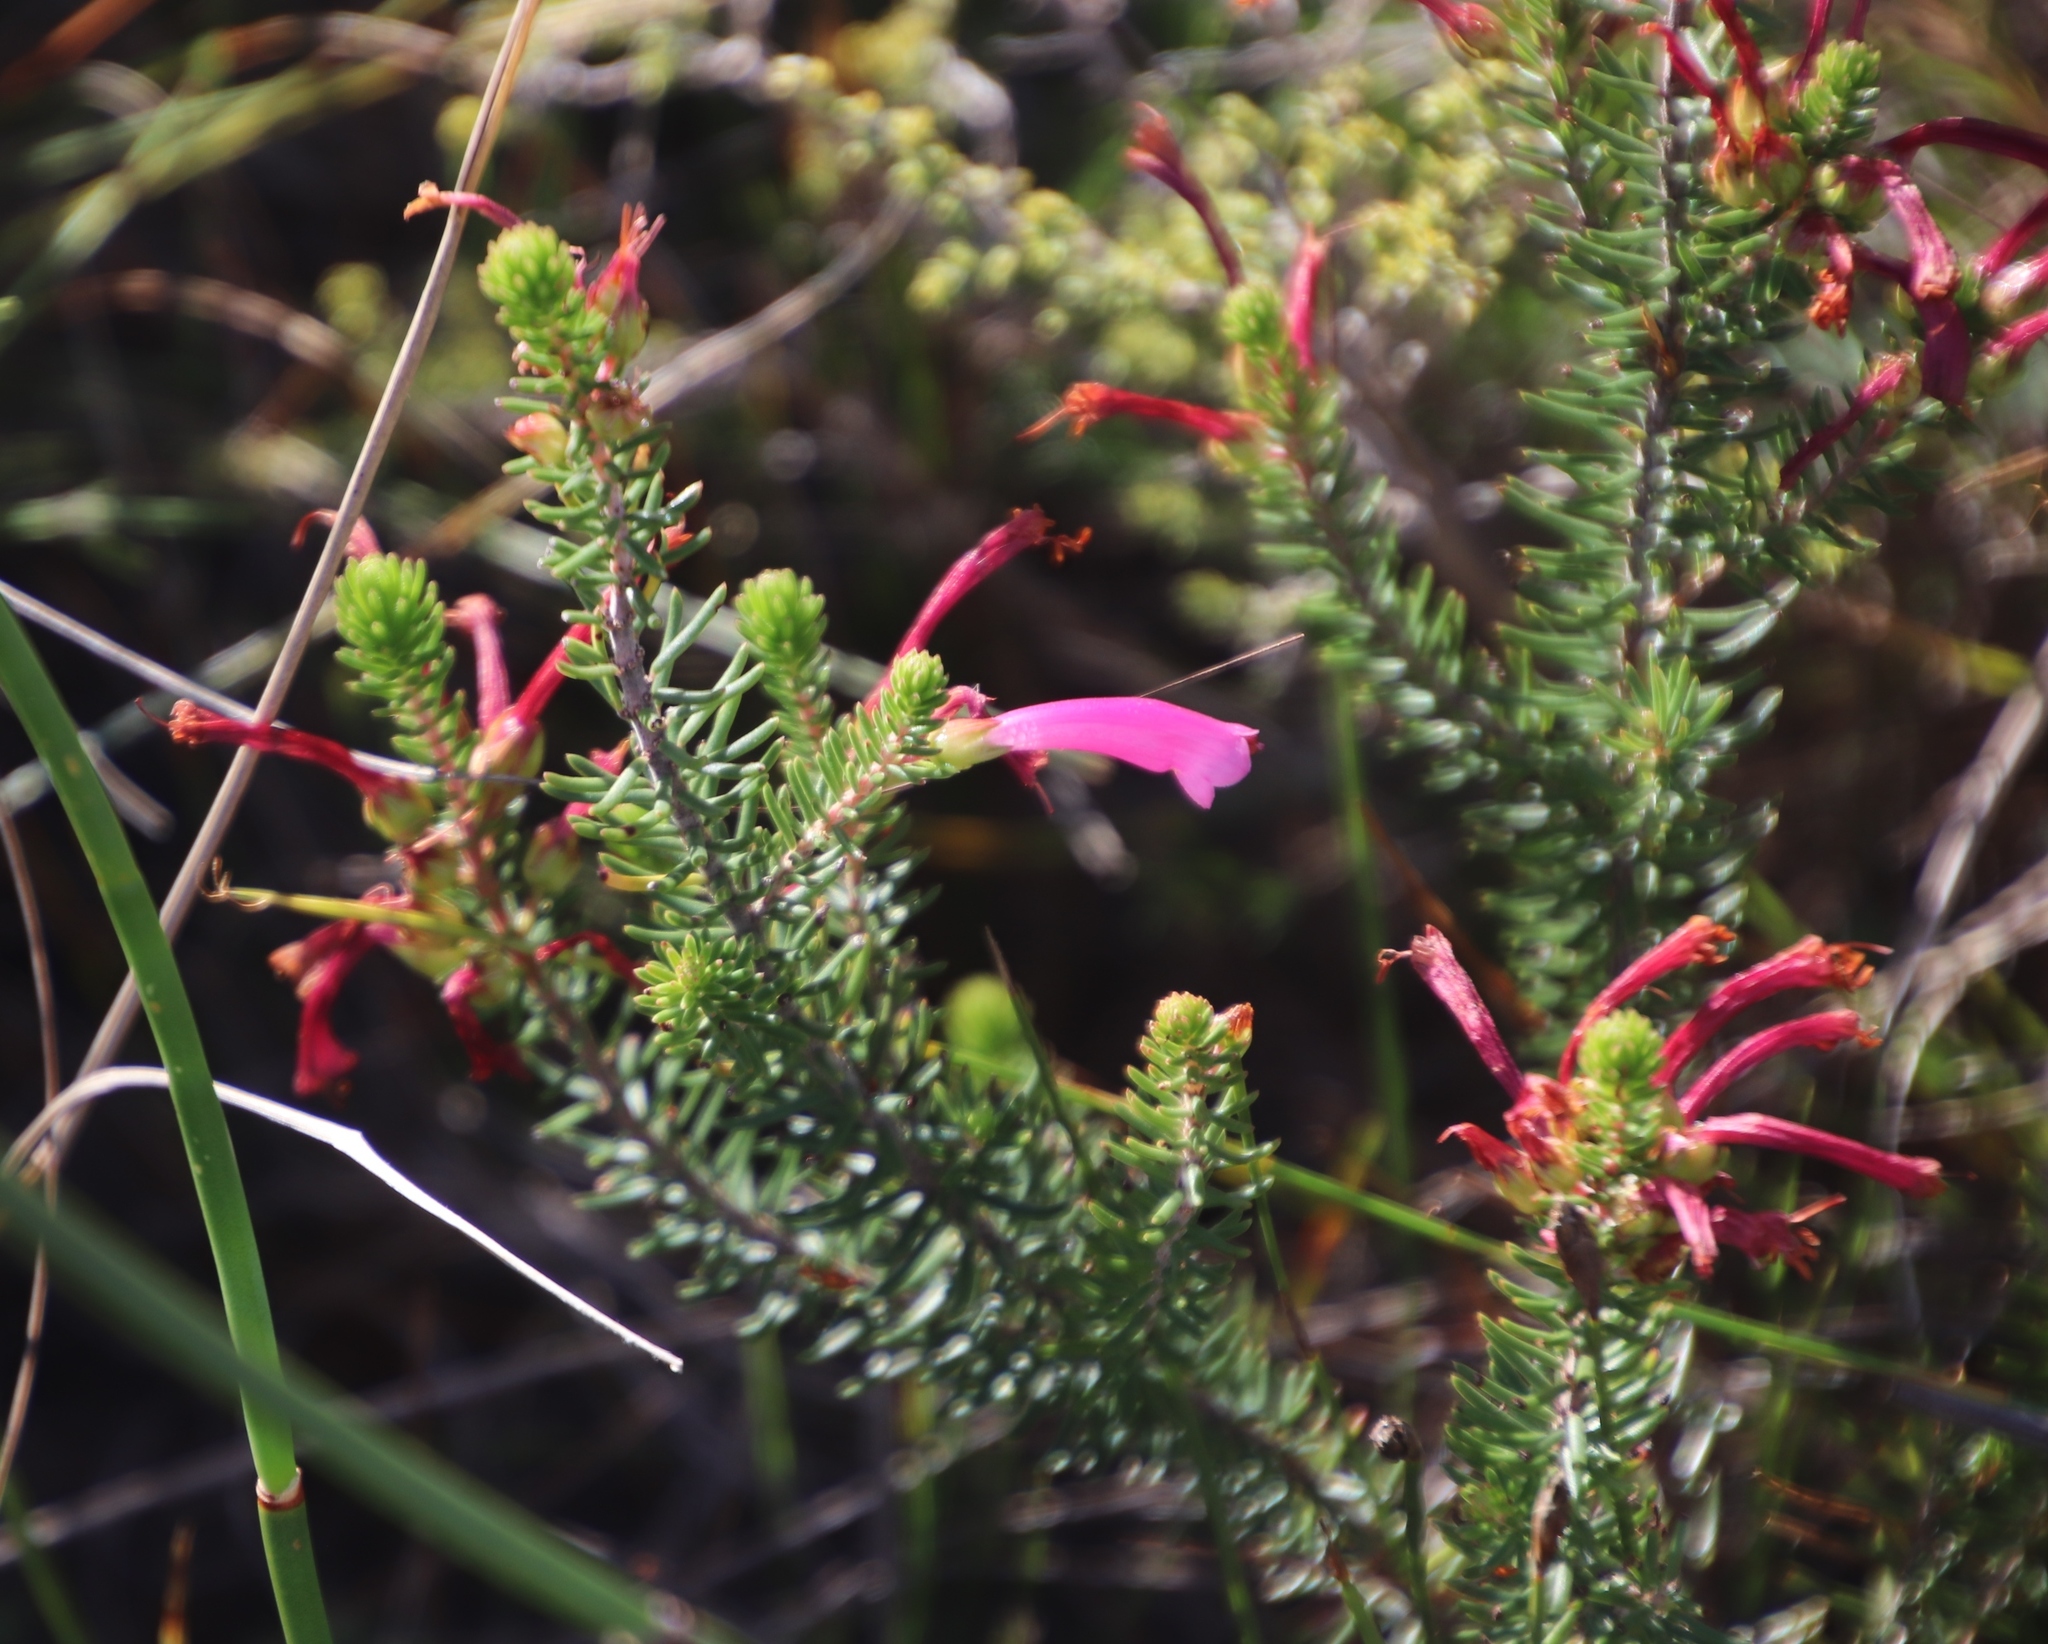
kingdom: Plantae
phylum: Tracheophyta
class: Magnoliopsida
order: Ericales
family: Ericaceae
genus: Erica
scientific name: Erica abietina
